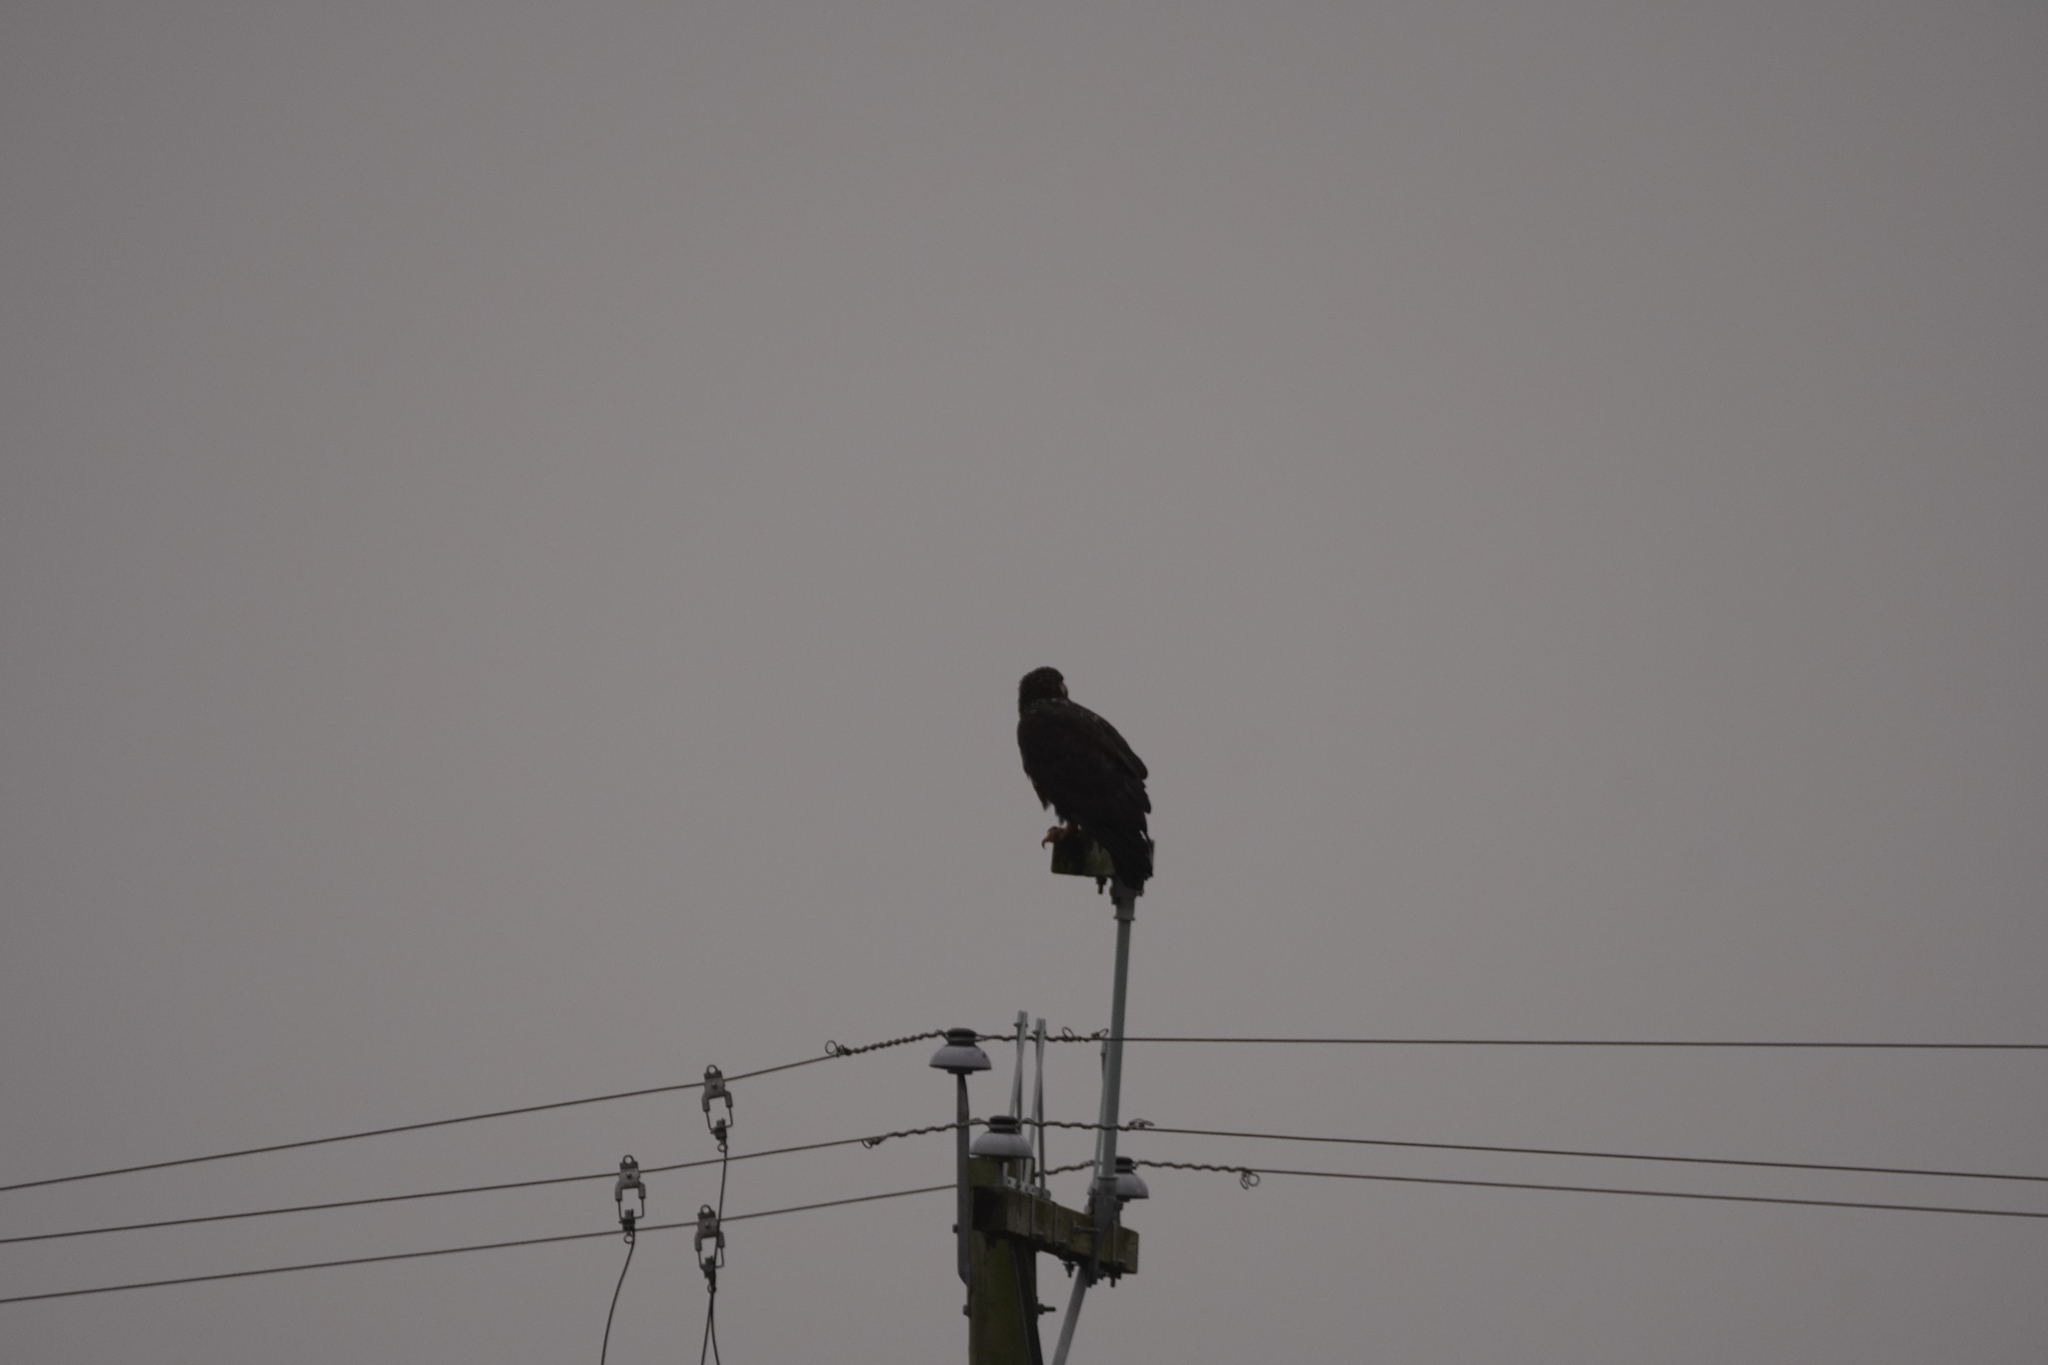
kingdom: Animalia
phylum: Chordata
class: Aves
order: Accipitriformes
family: Accipitridae
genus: Haliaeetus
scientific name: Haliaeetus leucocephalus
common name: Bald eagle
